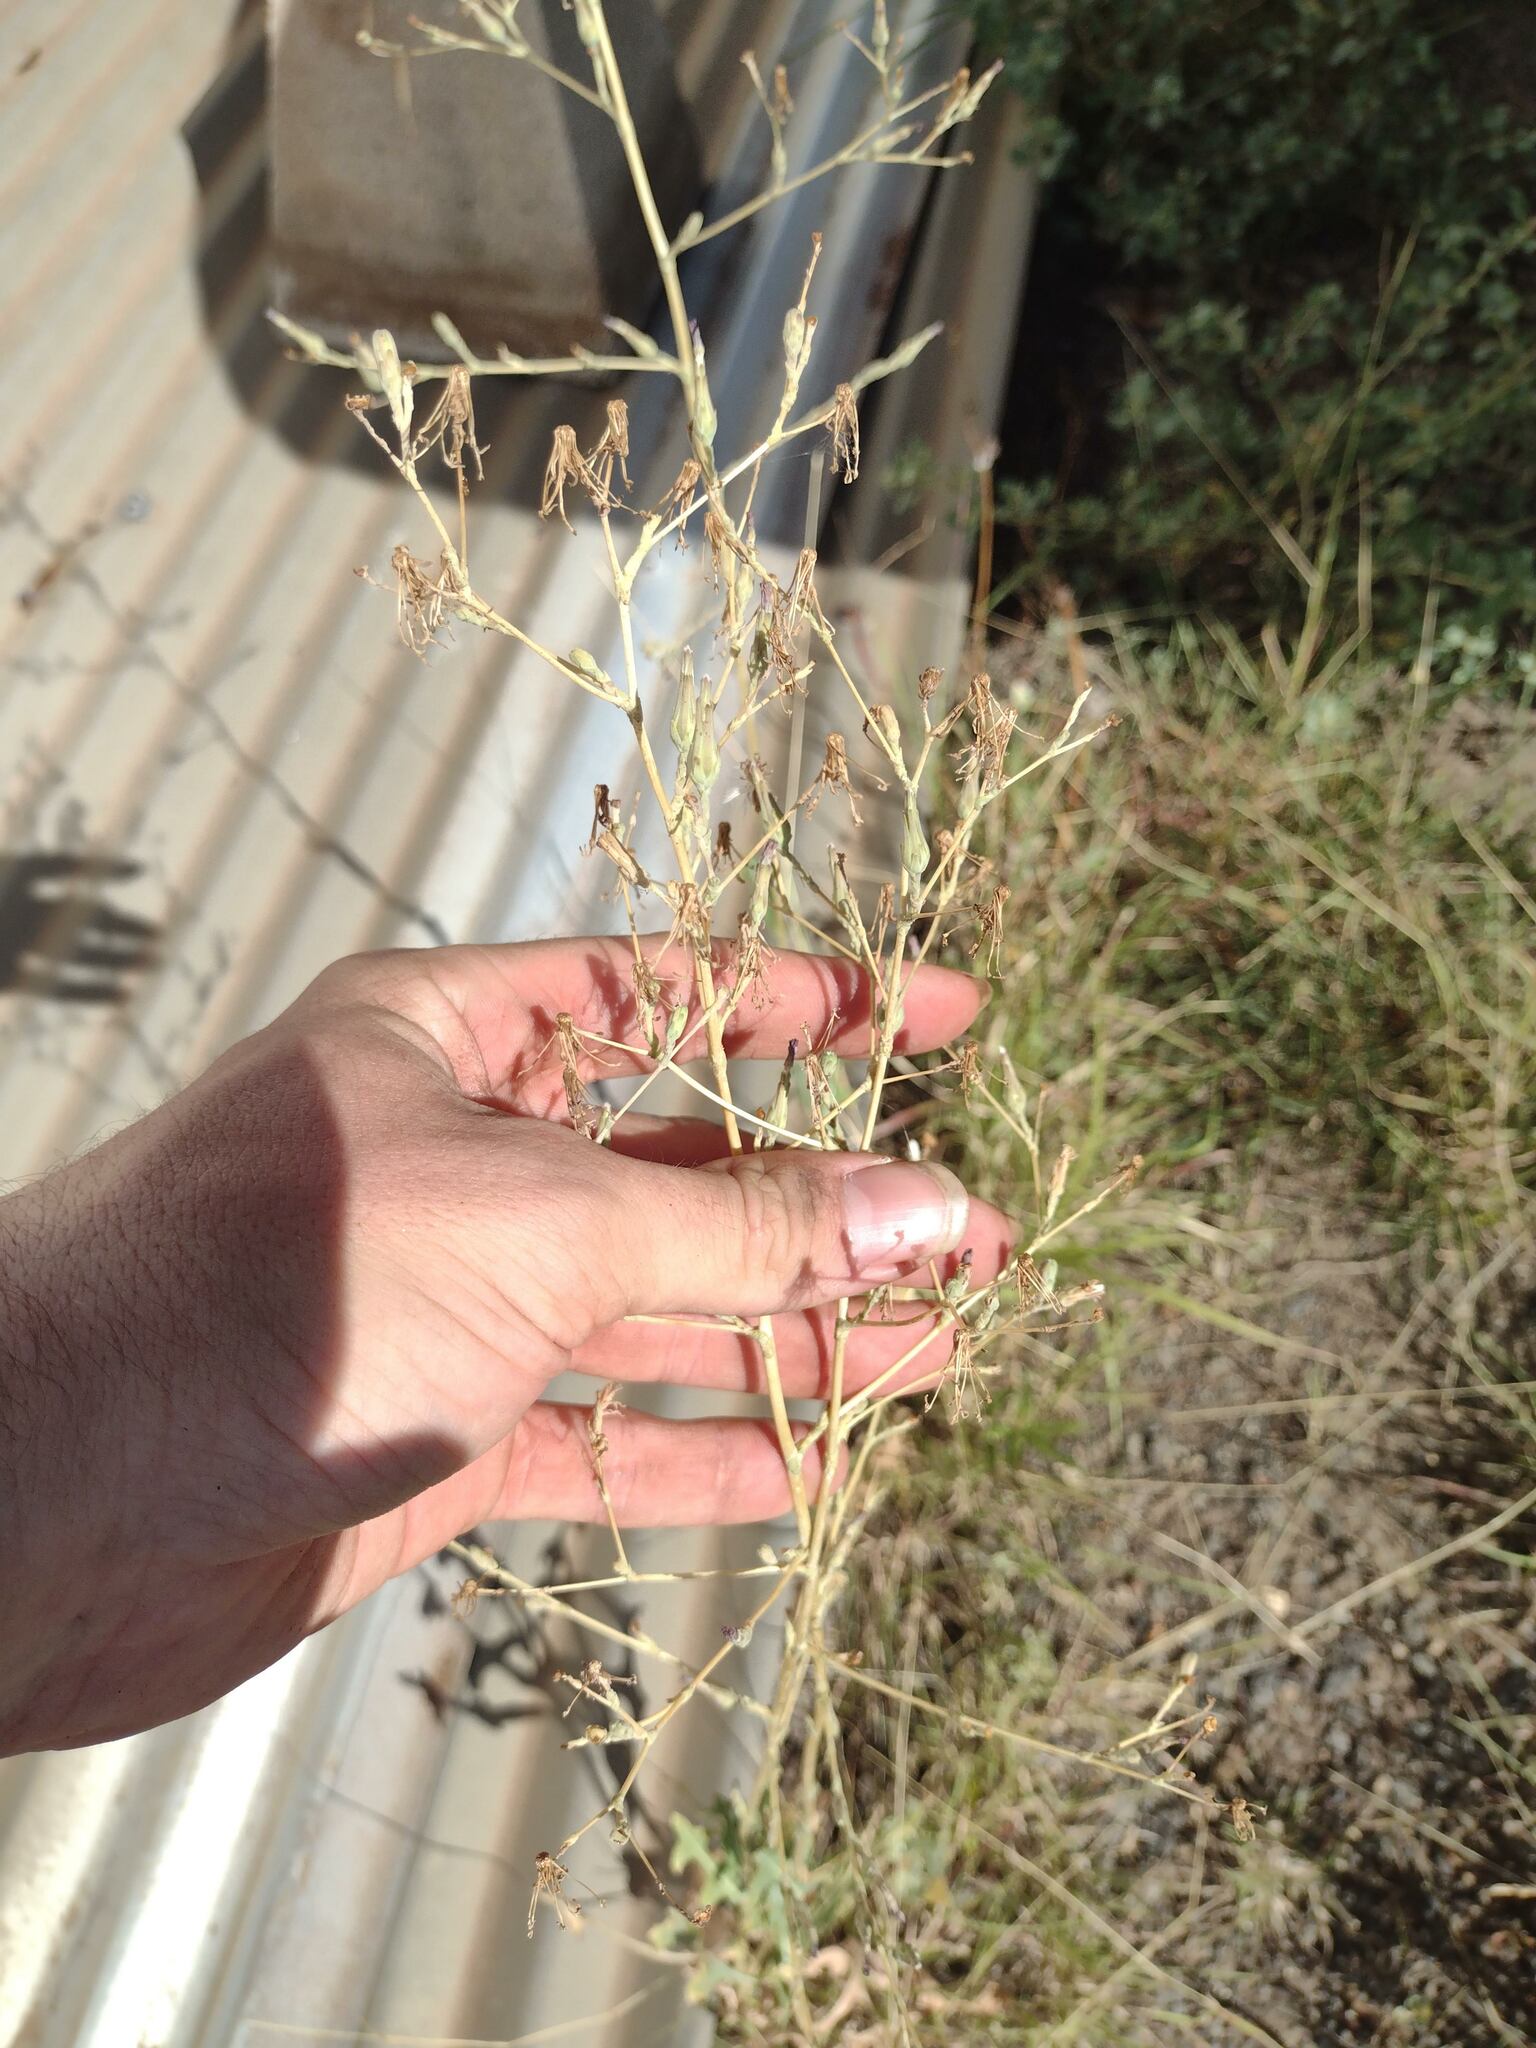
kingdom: Plantae
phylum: Tracheophyta
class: Magnoliopsida
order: Asterales
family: Asteraceae
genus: Lactuca
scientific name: Lactuca serriola
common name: Prickly lettuce
